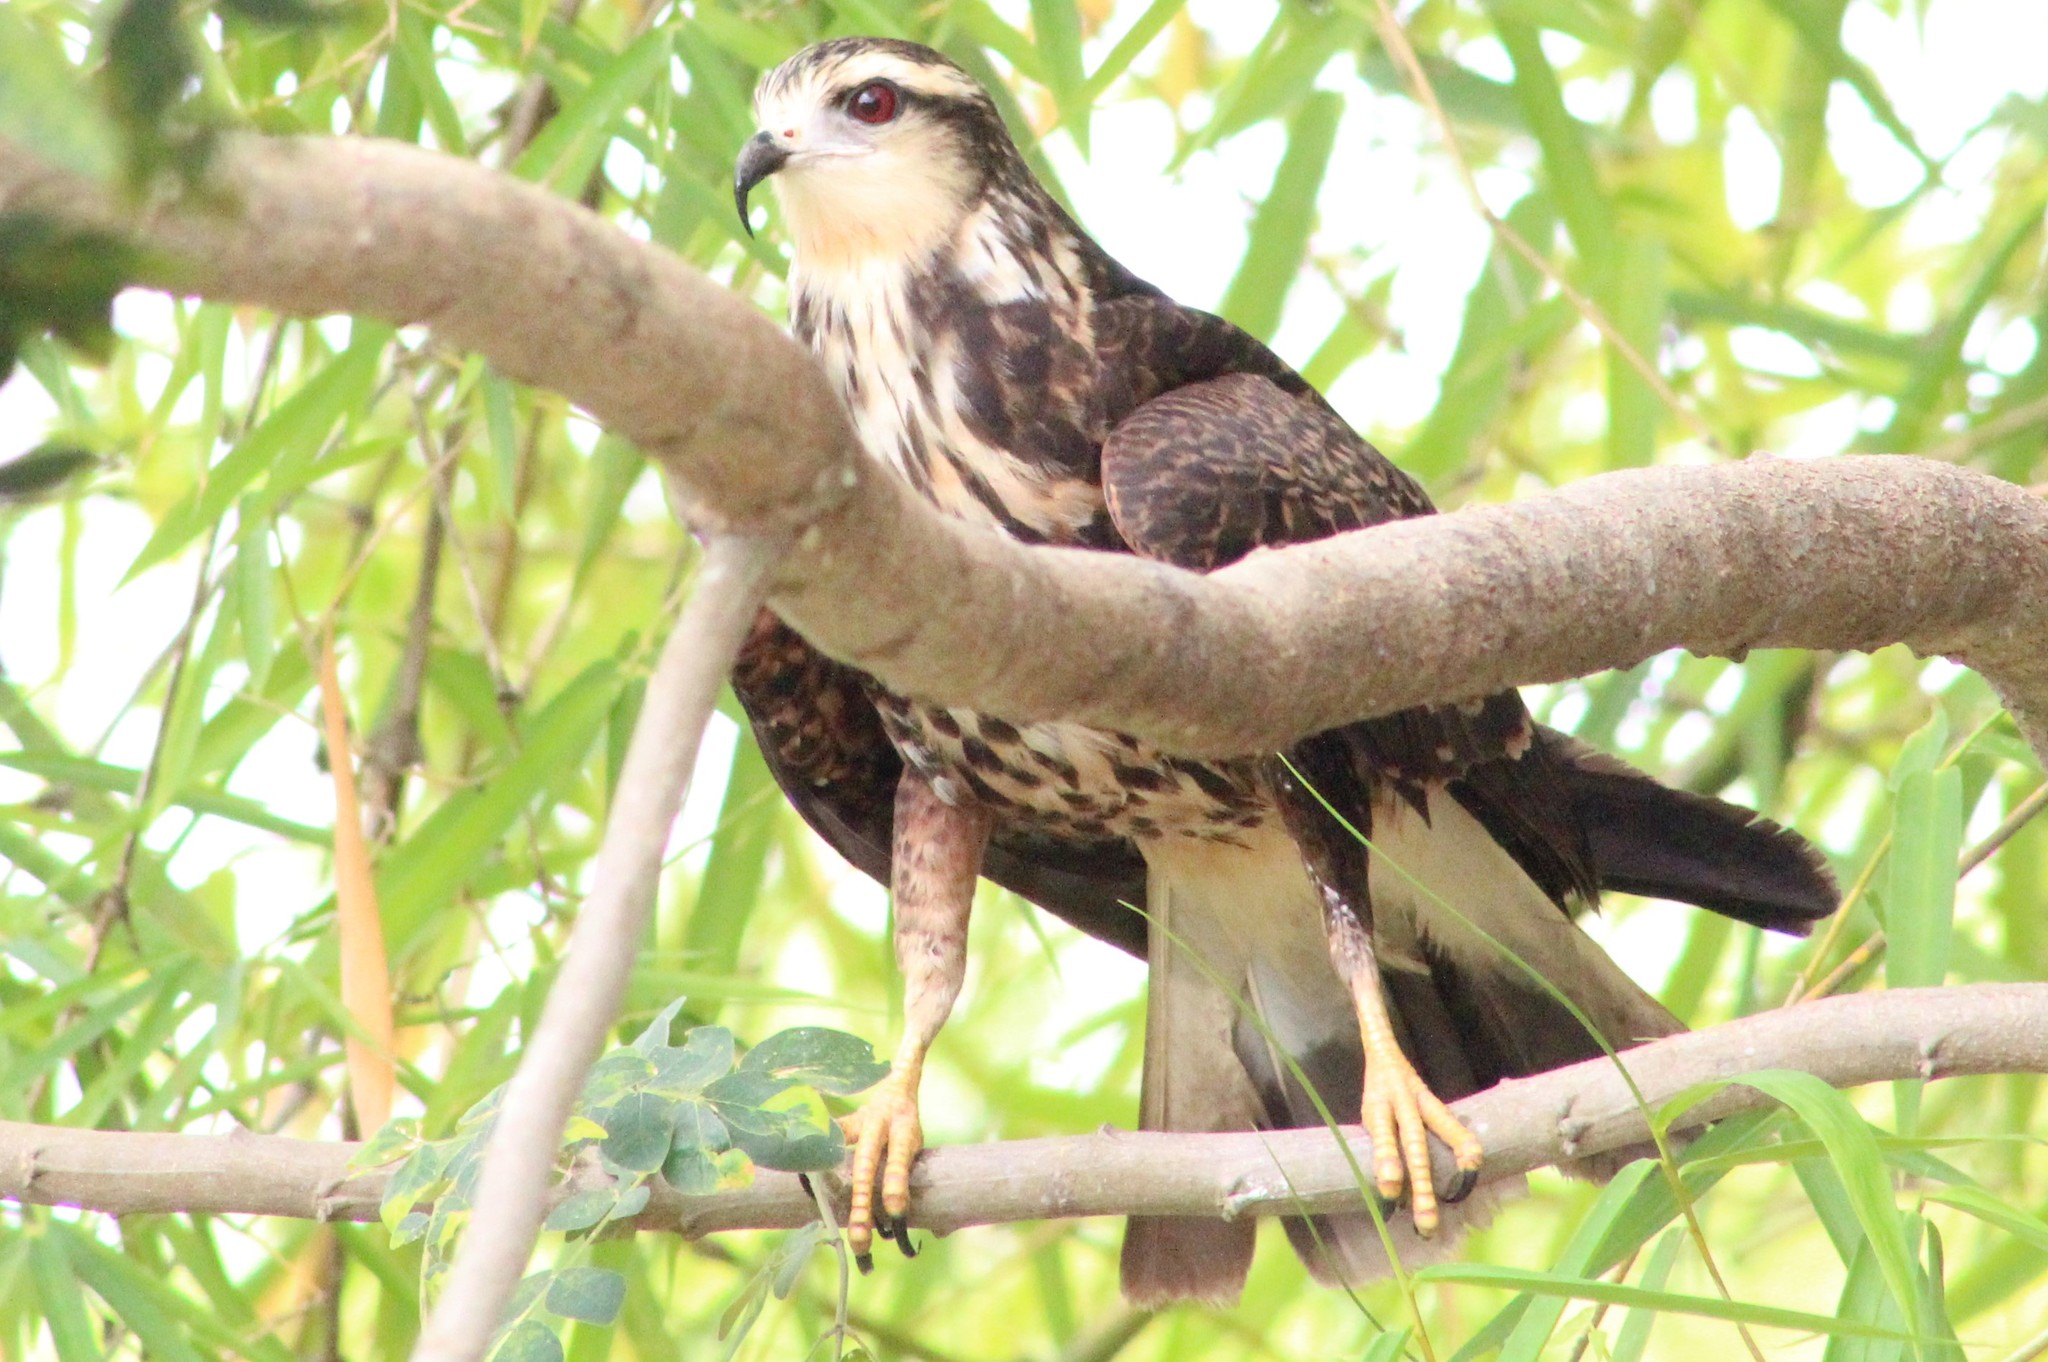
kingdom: Animalia
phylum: Chordata
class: Aves
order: Accipitriformes
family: Accipitridae
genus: Rostrhamus
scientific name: Rostrhamus sociabilis
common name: Snail kite
